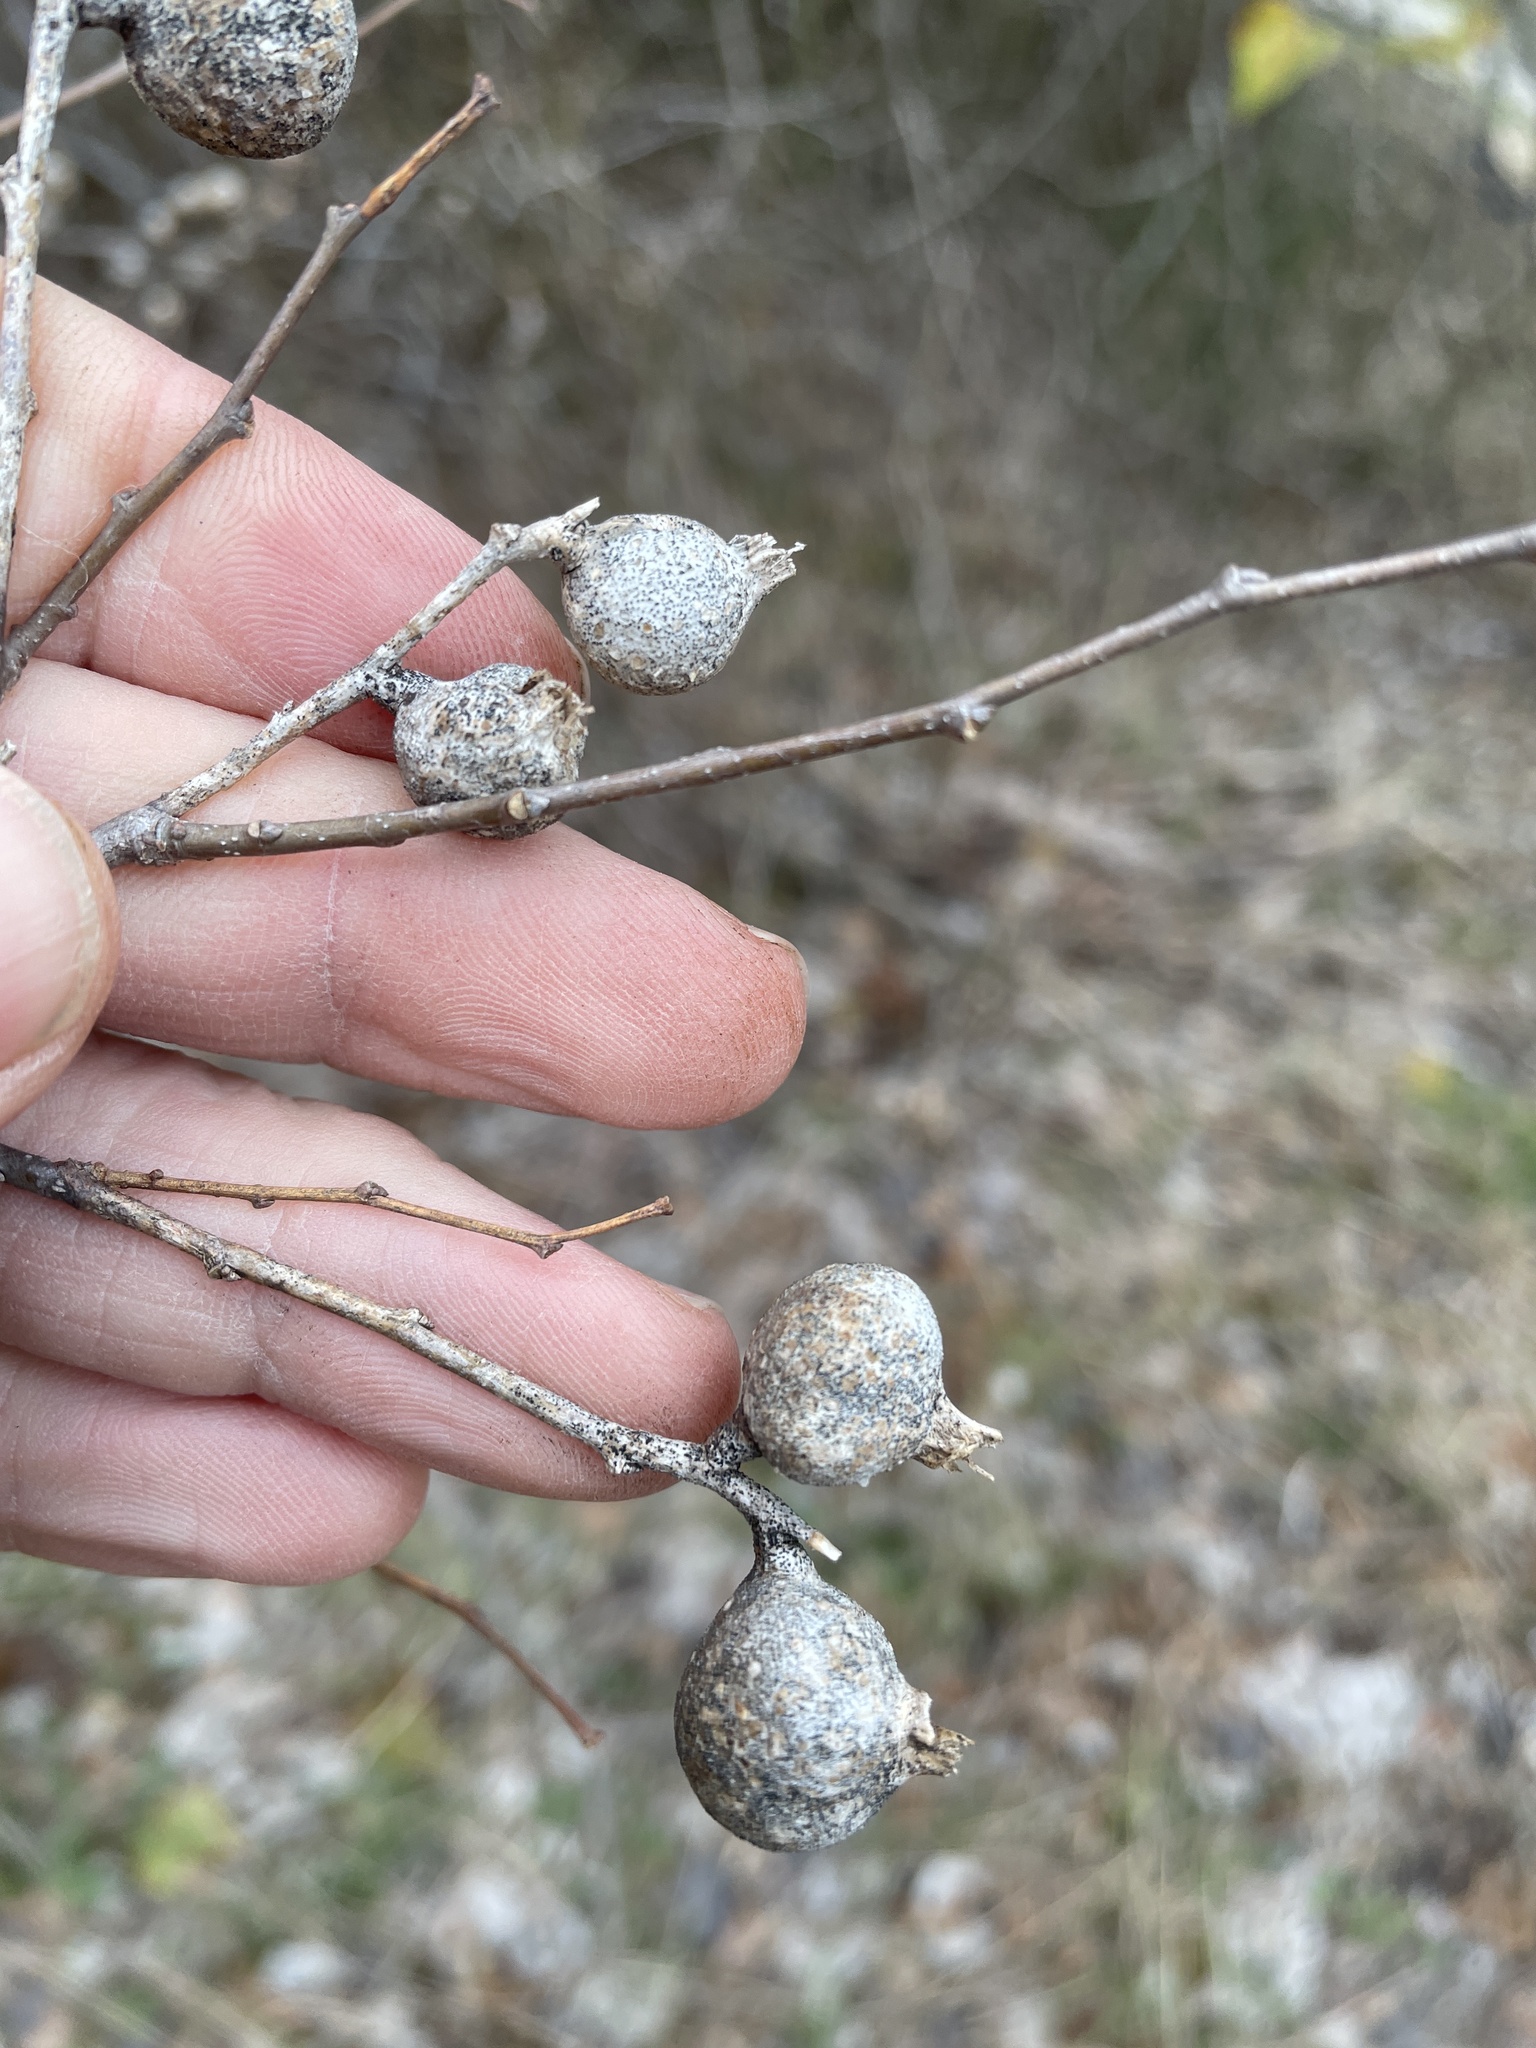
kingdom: Animalia
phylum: Arthropoda
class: Insecta
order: Hemiptera
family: Aphalaridae
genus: Pachypsylla
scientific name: Pachypsylla venusta
